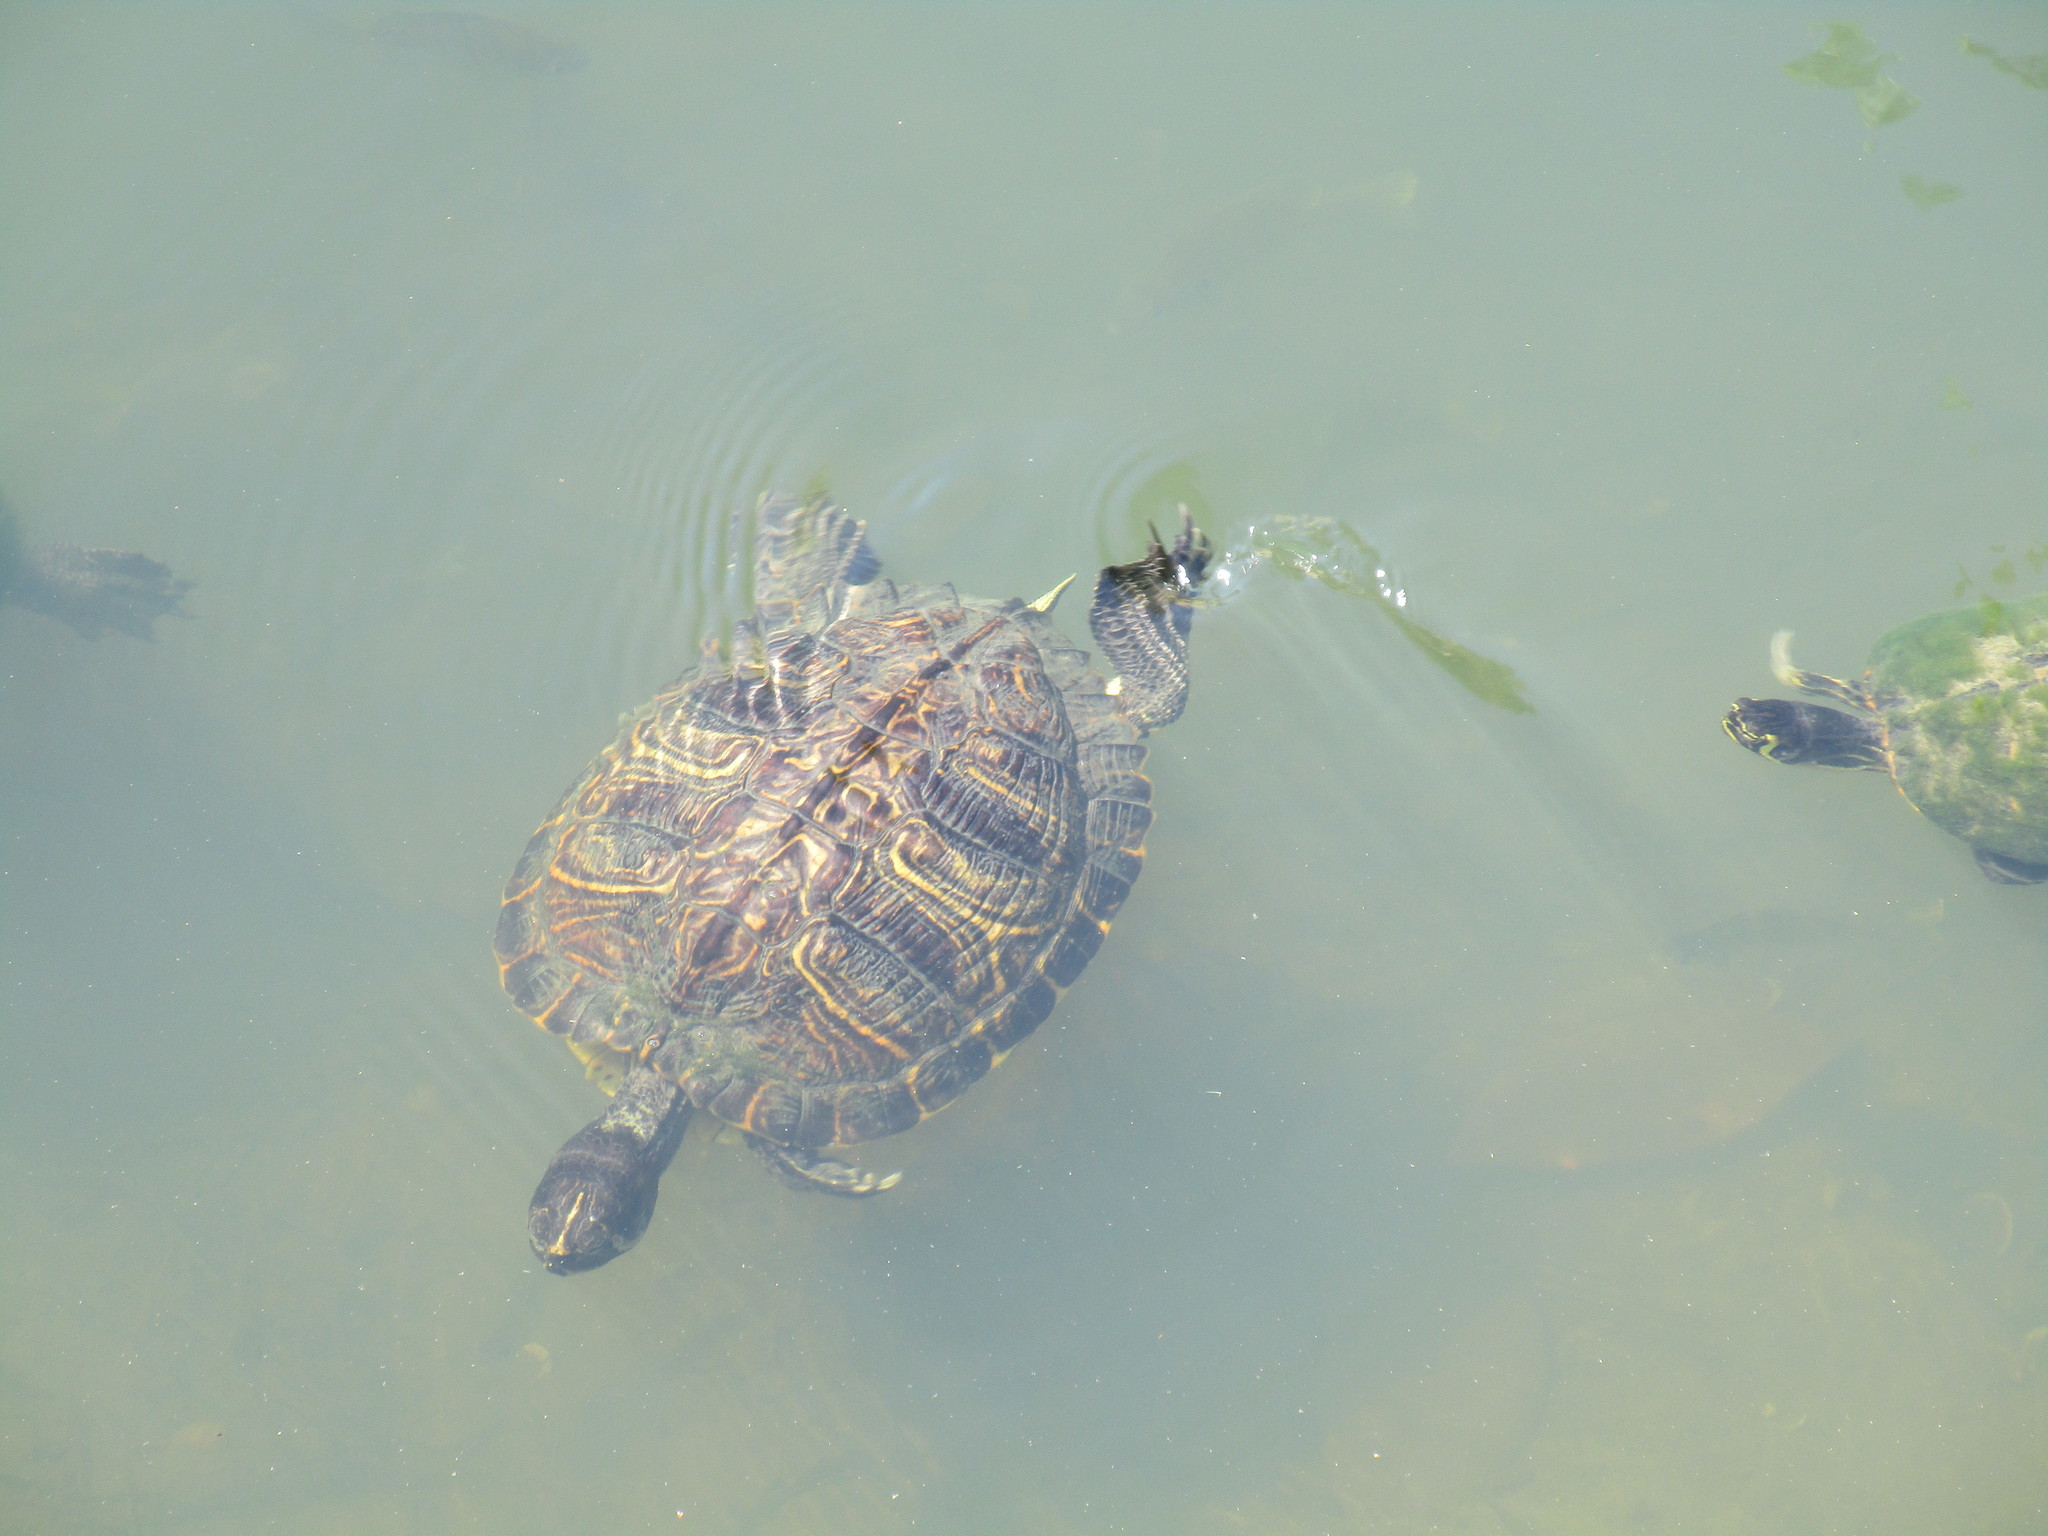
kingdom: Animalia
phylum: Chordata
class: Testudines
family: Emydidae
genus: Trachemys
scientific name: Trachemys scripta
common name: Slider
